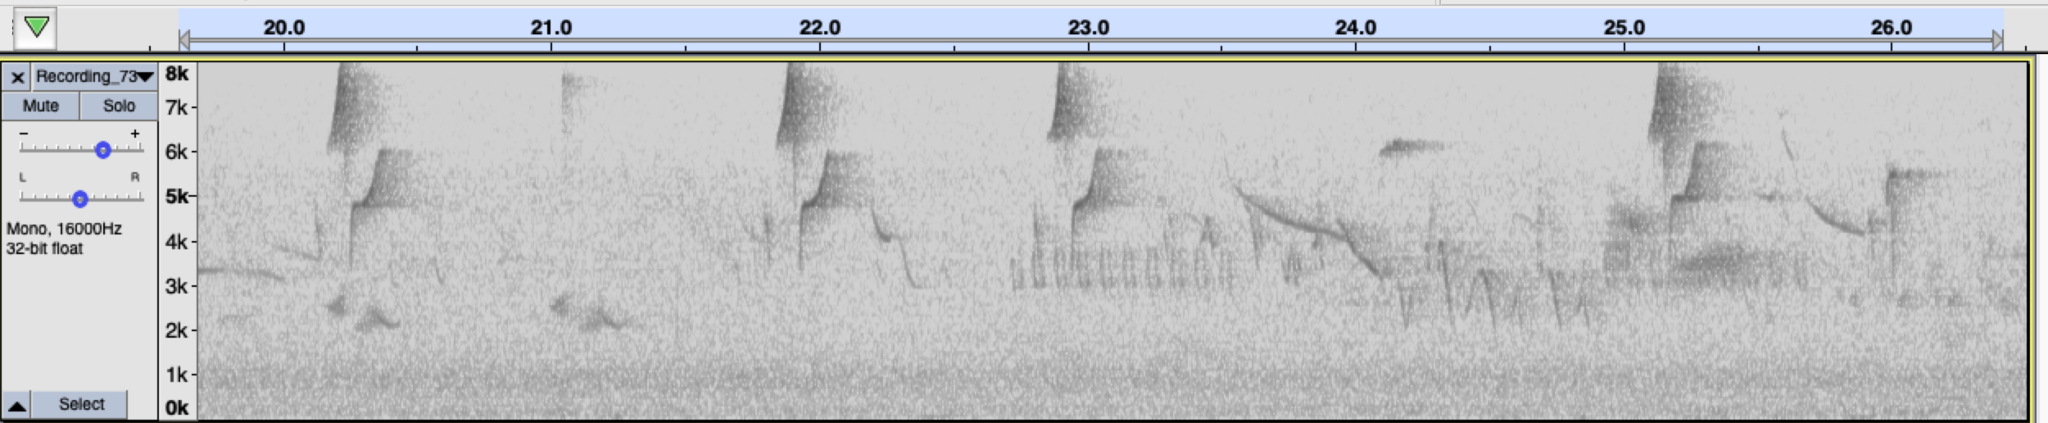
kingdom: Animalia
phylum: Chordata
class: Aves
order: Passeriformes
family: Tyrannidae
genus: Empidonax
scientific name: Empidonax difficilis
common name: Pacific-slope flycatcher
